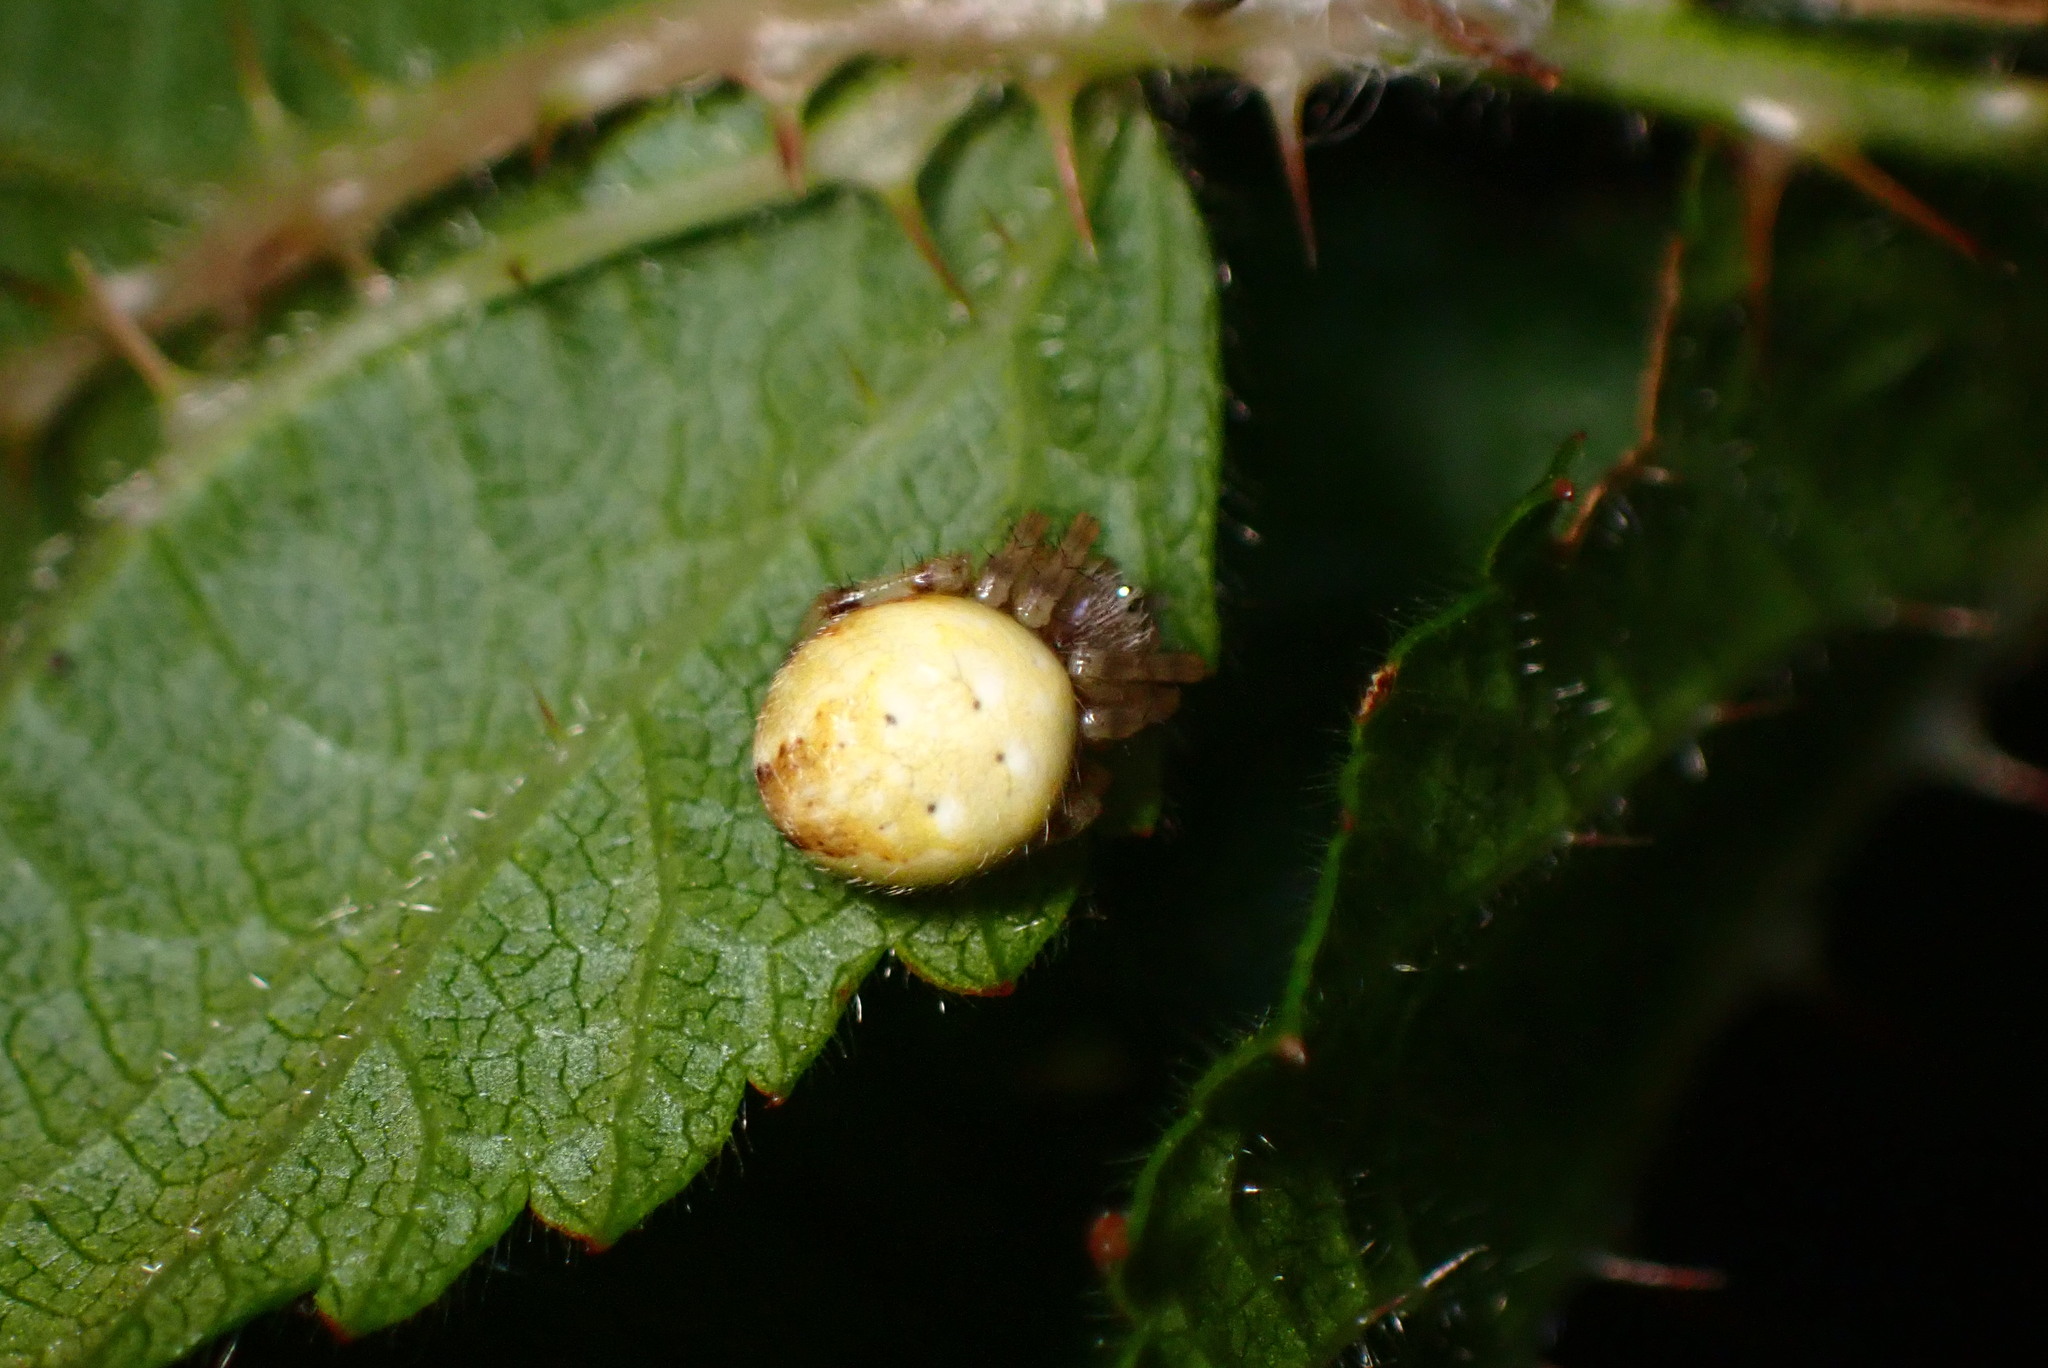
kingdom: Animalia
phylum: Arthropoda
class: Arachnida
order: Araneae
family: Araneidae
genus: Araneus
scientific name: Araneus trifolium
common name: Shamrock orbweaver
